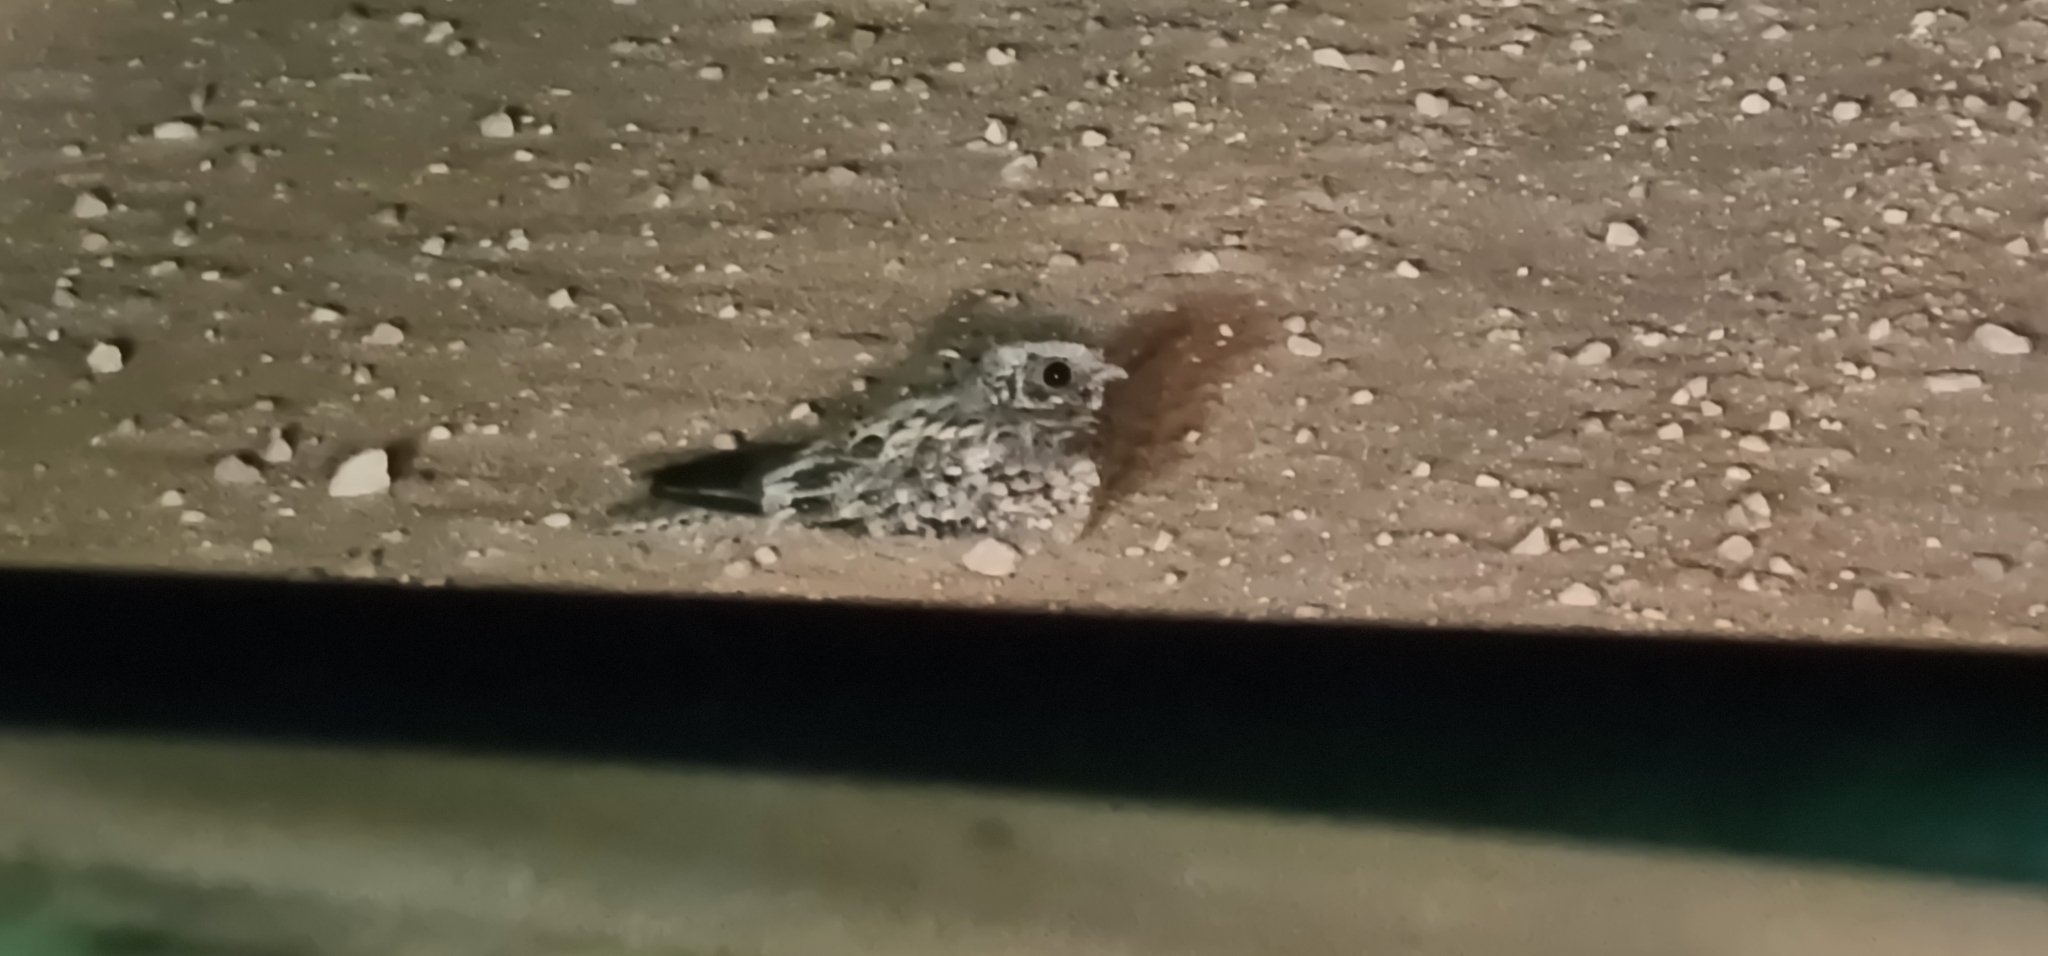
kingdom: Animalia
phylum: Chordata
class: Aves
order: Caprimulgiformes
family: Caprimulgidae
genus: Eurostopodus
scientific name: Eurostopodus argus
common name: Spotted nightjar
